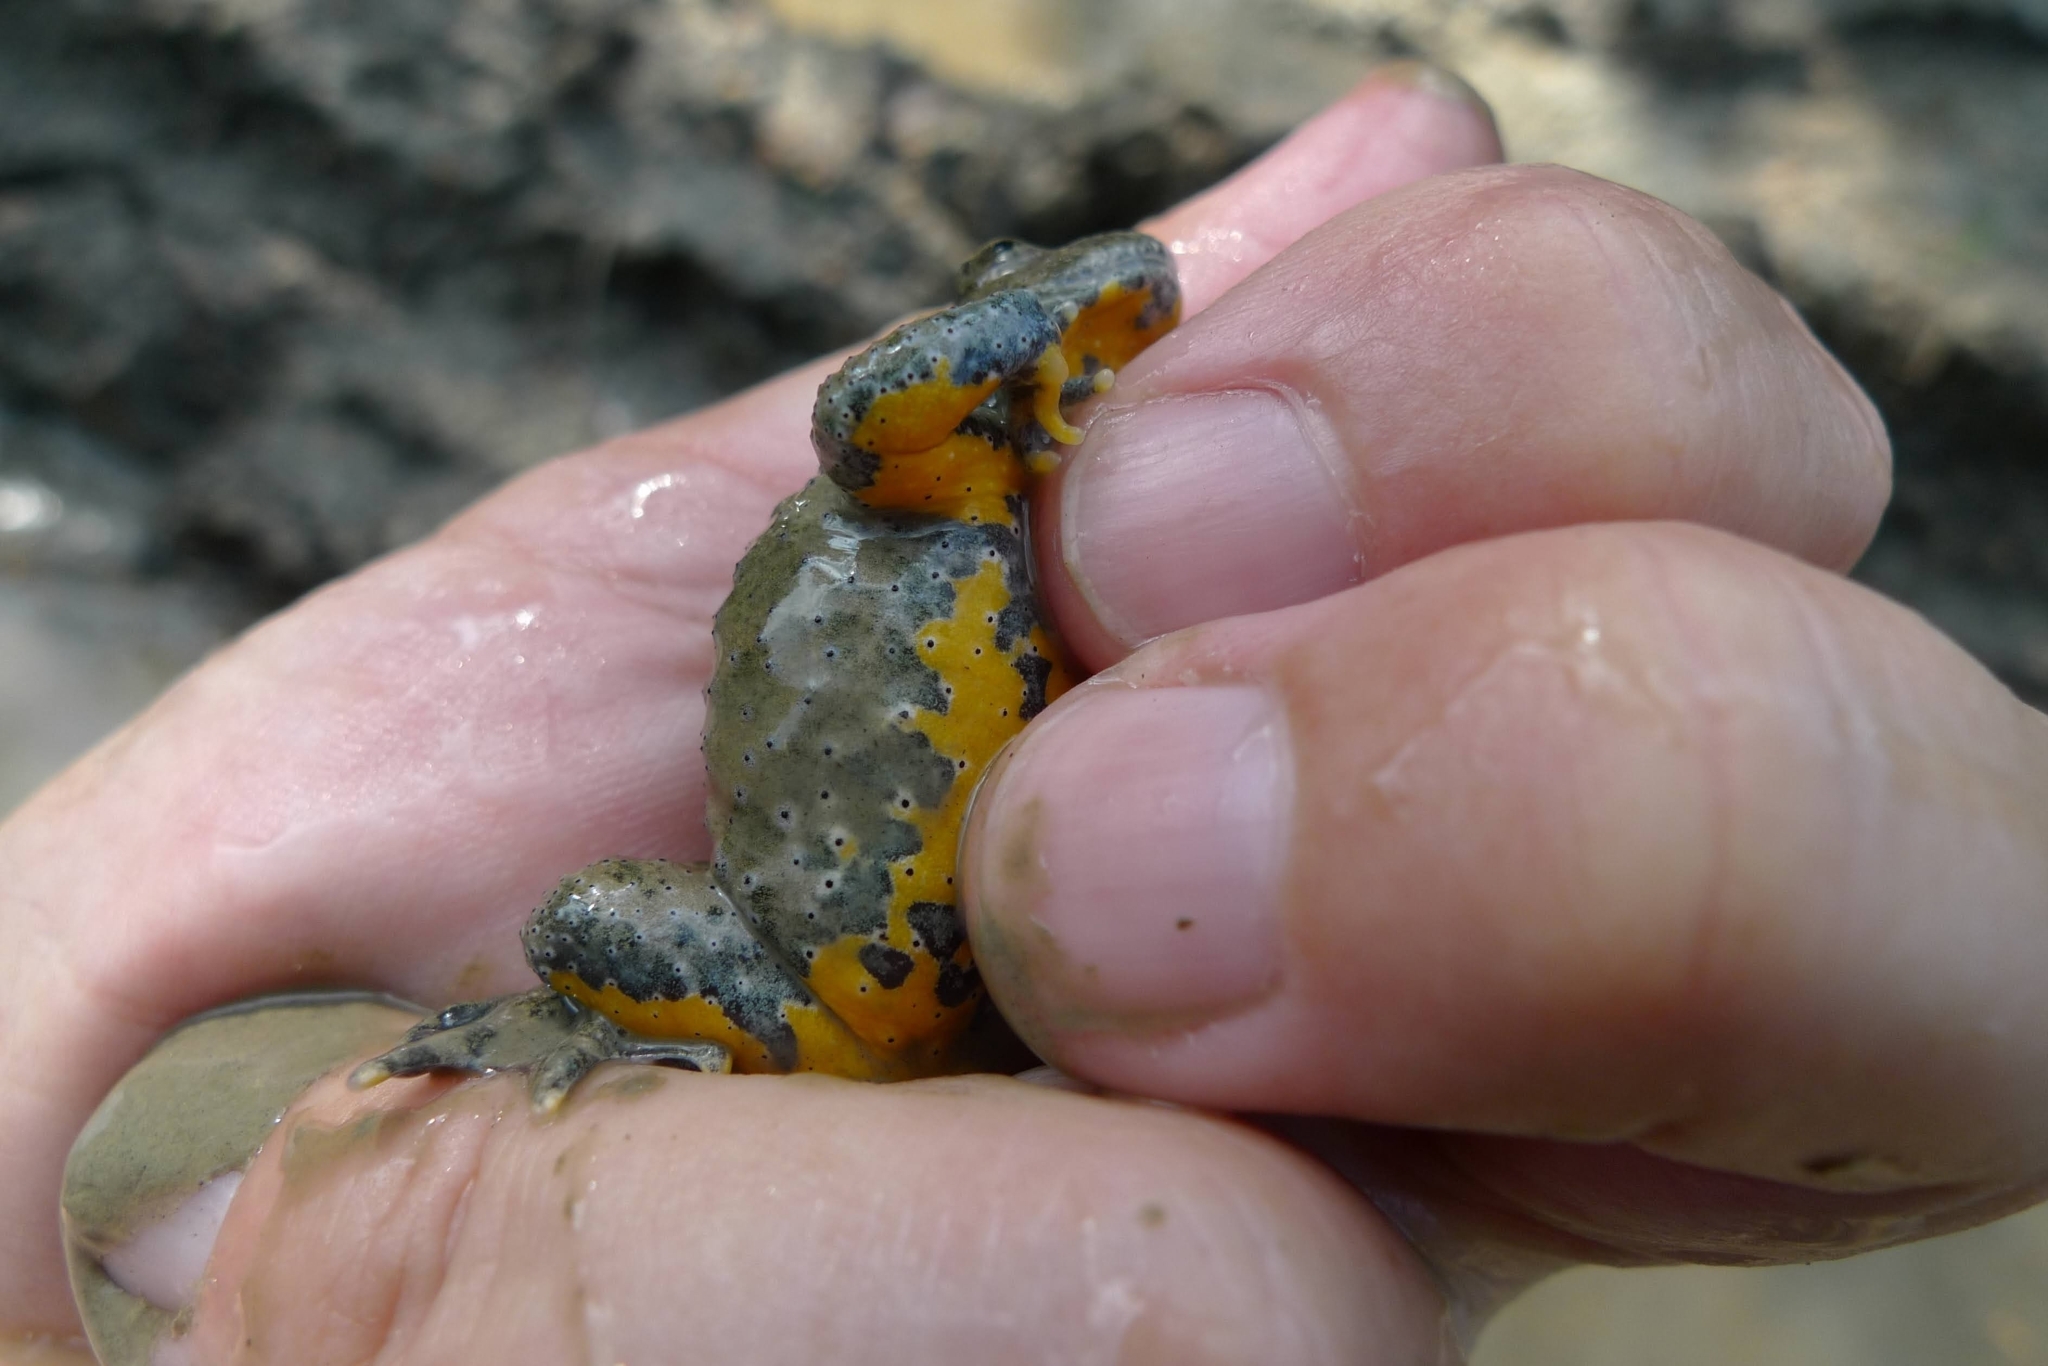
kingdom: Animalia
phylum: Chordata
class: Amphibia
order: Anura
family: Bombinatoridae
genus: Bombina
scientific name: Bombina variegata
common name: Yellow-bellied toad
